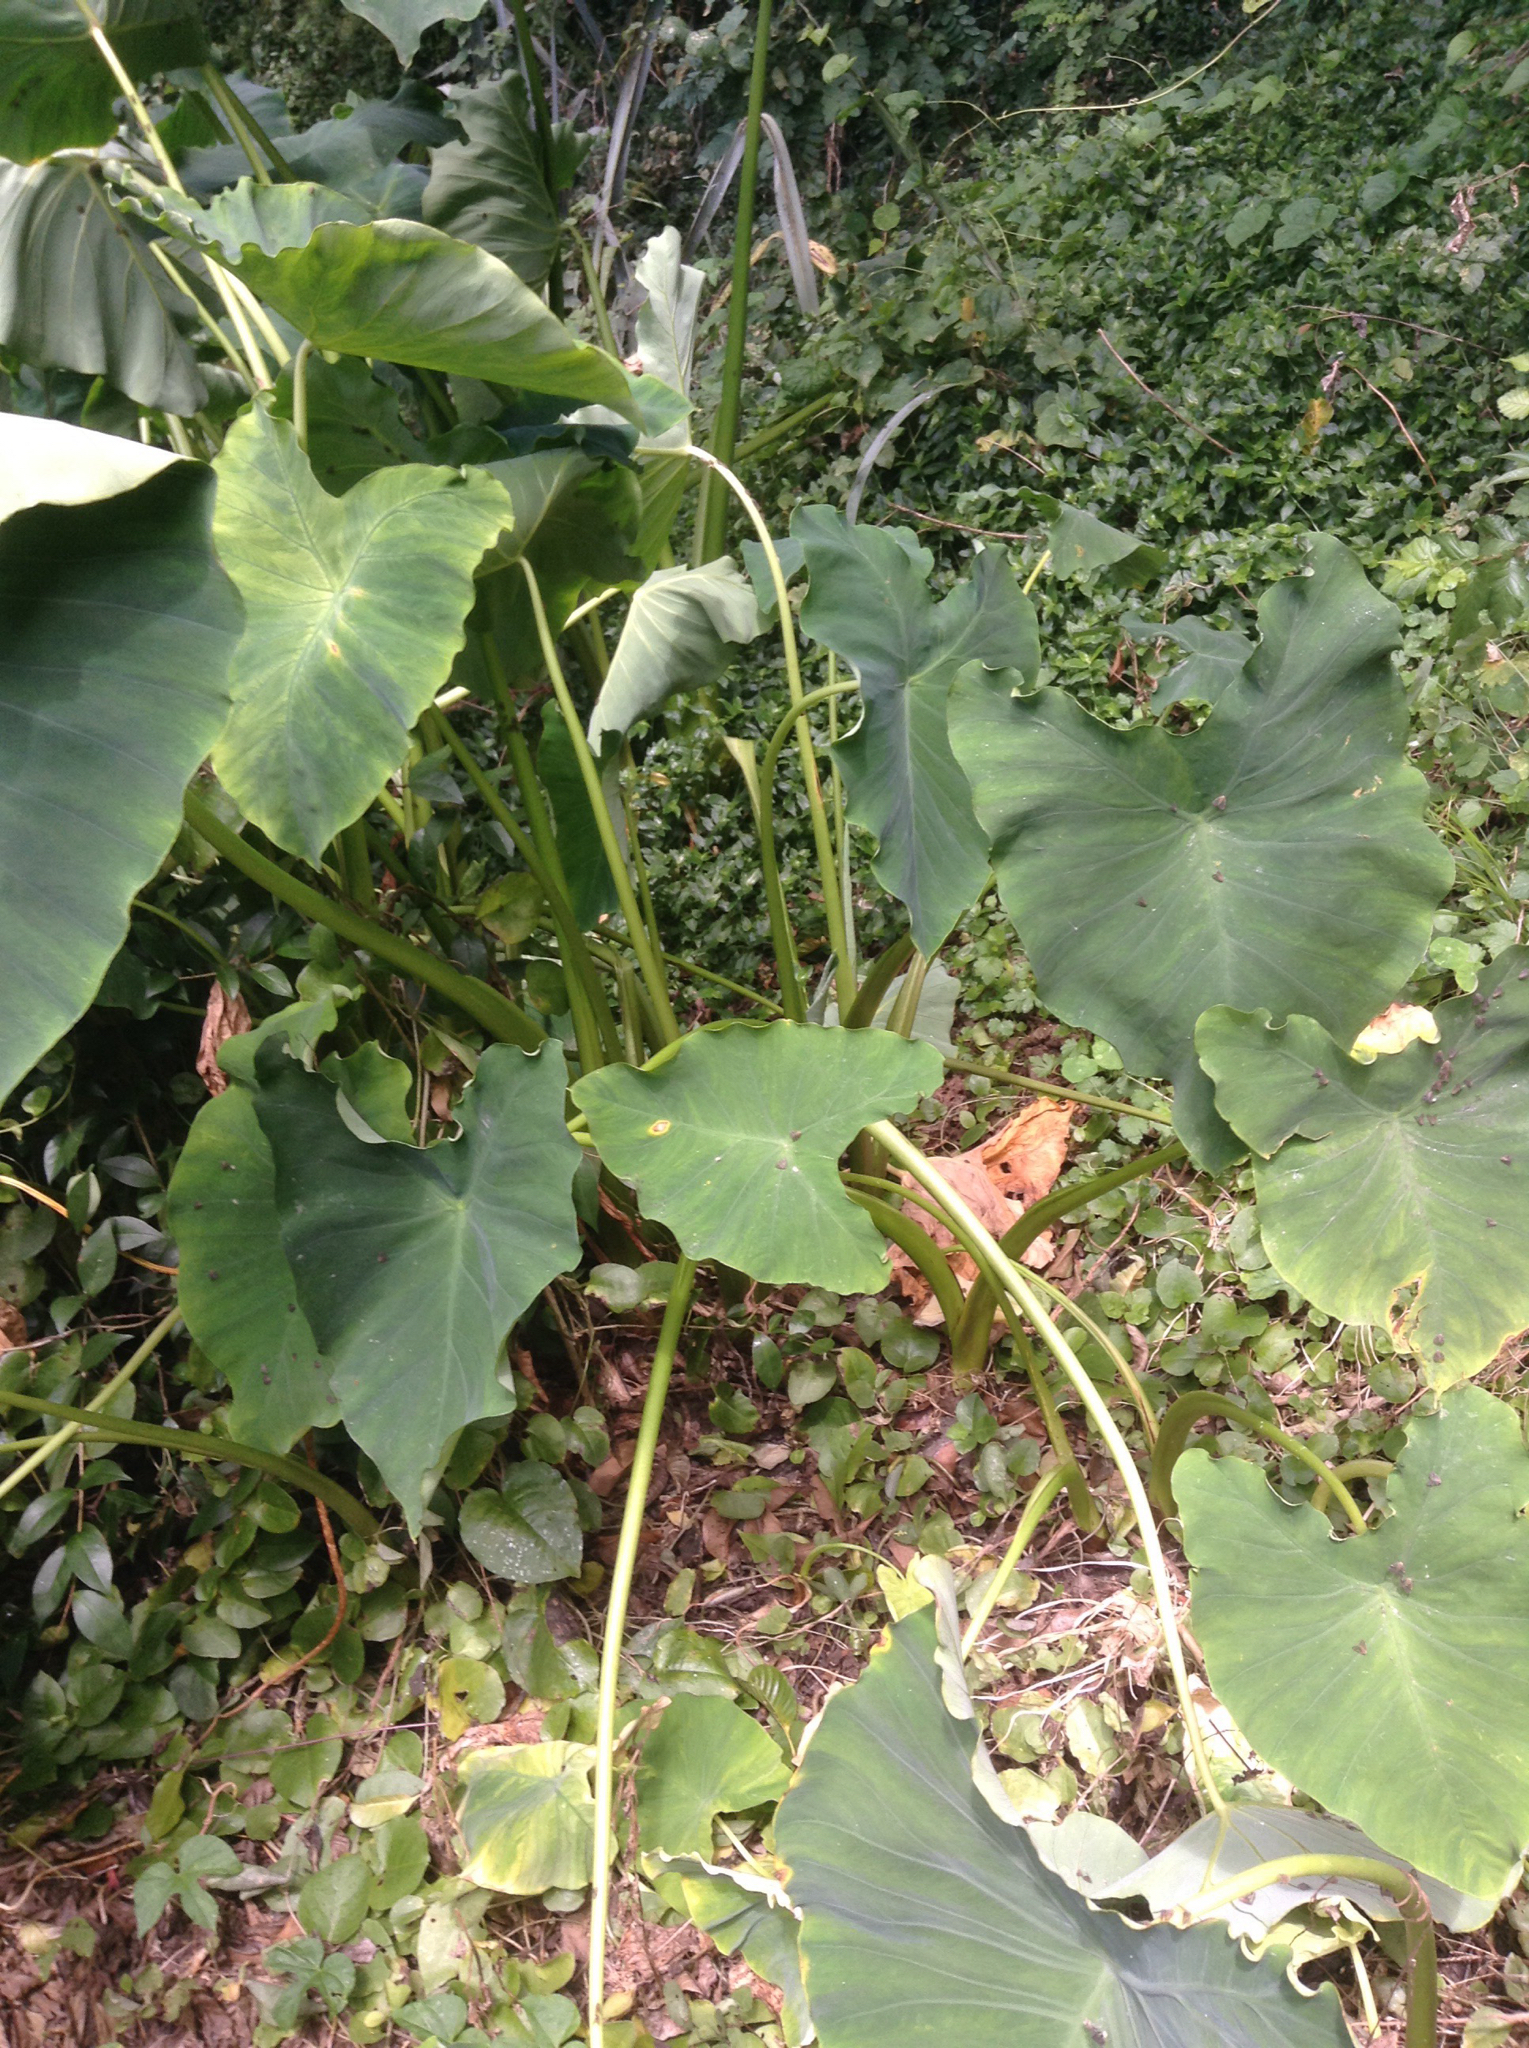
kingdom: Plantae
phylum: Tracheophyta
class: Liliopsida
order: Alismatales
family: Araceae
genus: Colocasia
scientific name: Colocasia esculenta
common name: Taro
